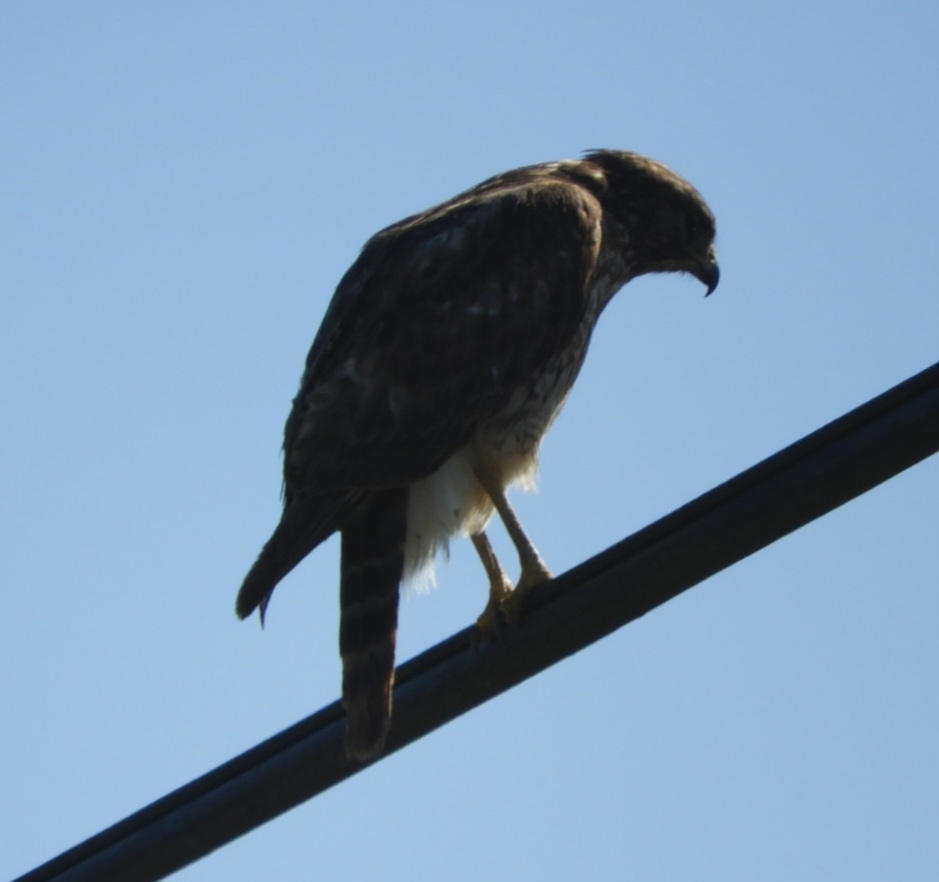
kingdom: Animalia
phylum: Chordata
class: Aves
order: Accipitriformes
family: Accipitridae
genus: Buteo
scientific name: Buteo lineatus
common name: Red-shouldered hawk
